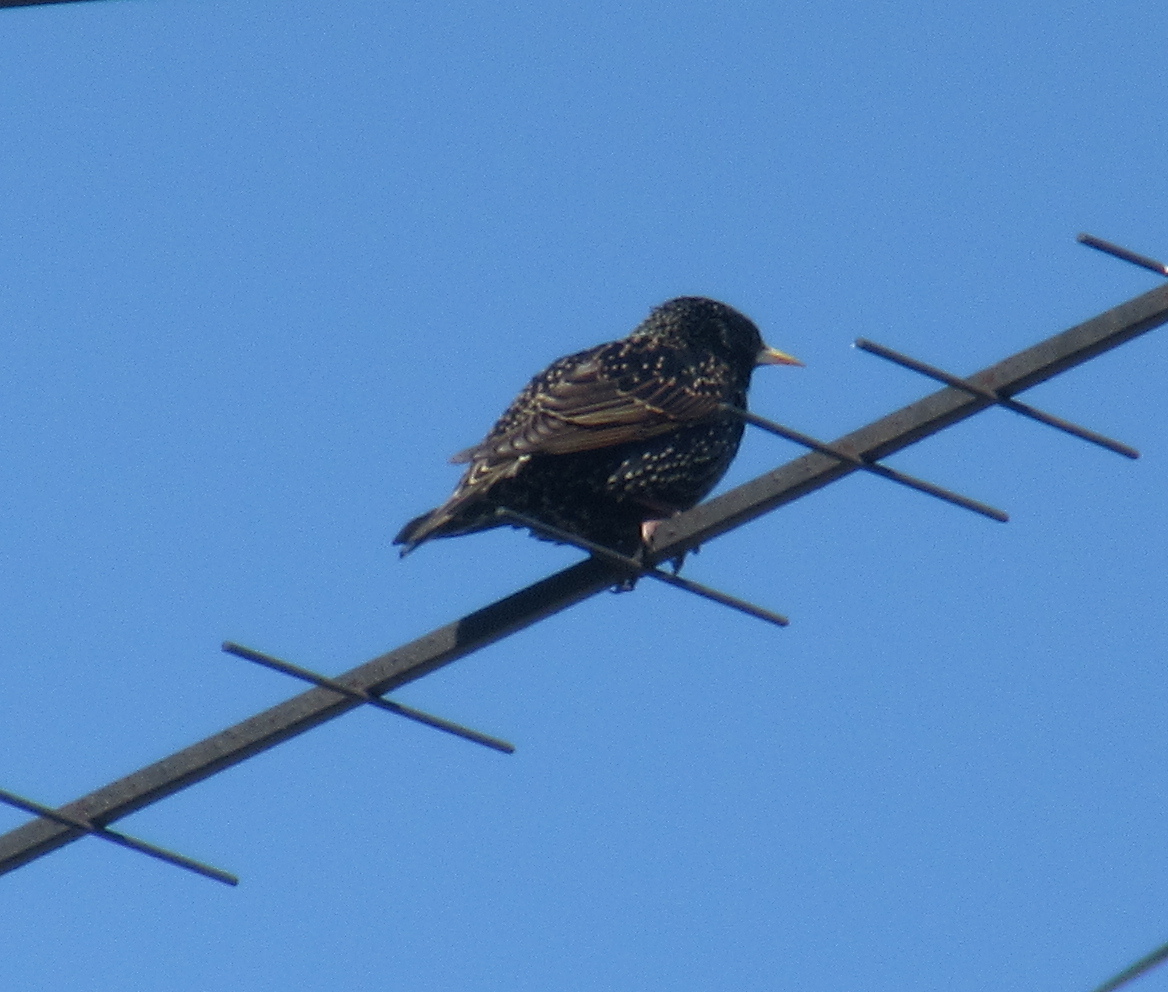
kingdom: Animalia
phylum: Chordata
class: Aves
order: Passeriformes
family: Sturnidae
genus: Sturnus
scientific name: Sturnus vulgaris
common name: Common starling
